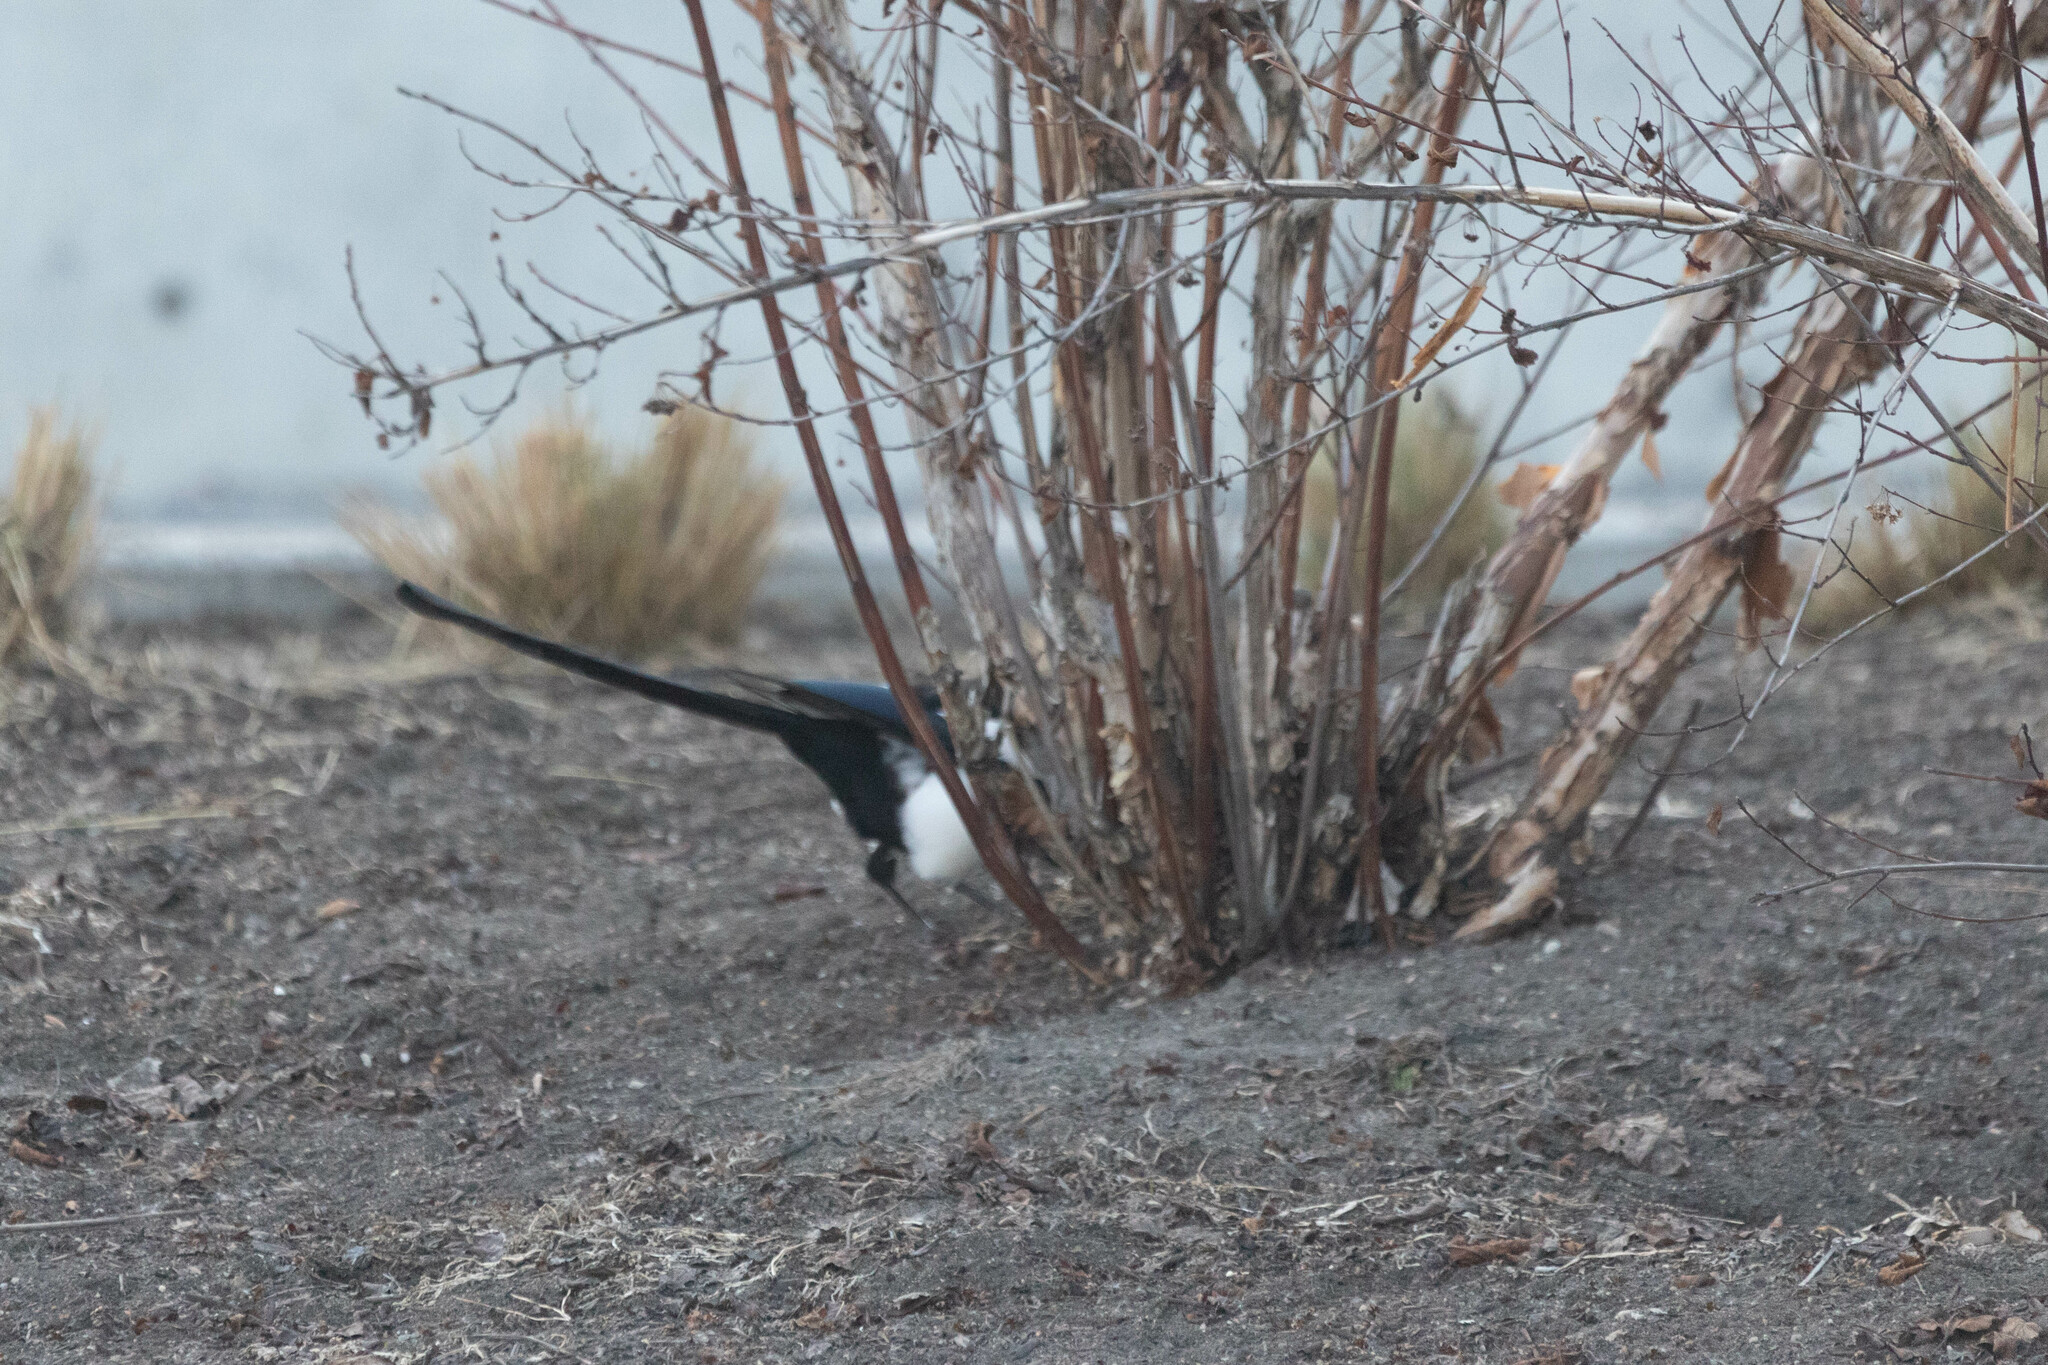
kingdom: Animalia
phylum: Chordata
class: Aves
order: Passeriformes
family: Corvidae
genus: Pica
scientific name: Pica hudsonia
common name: Black-billed magpie
